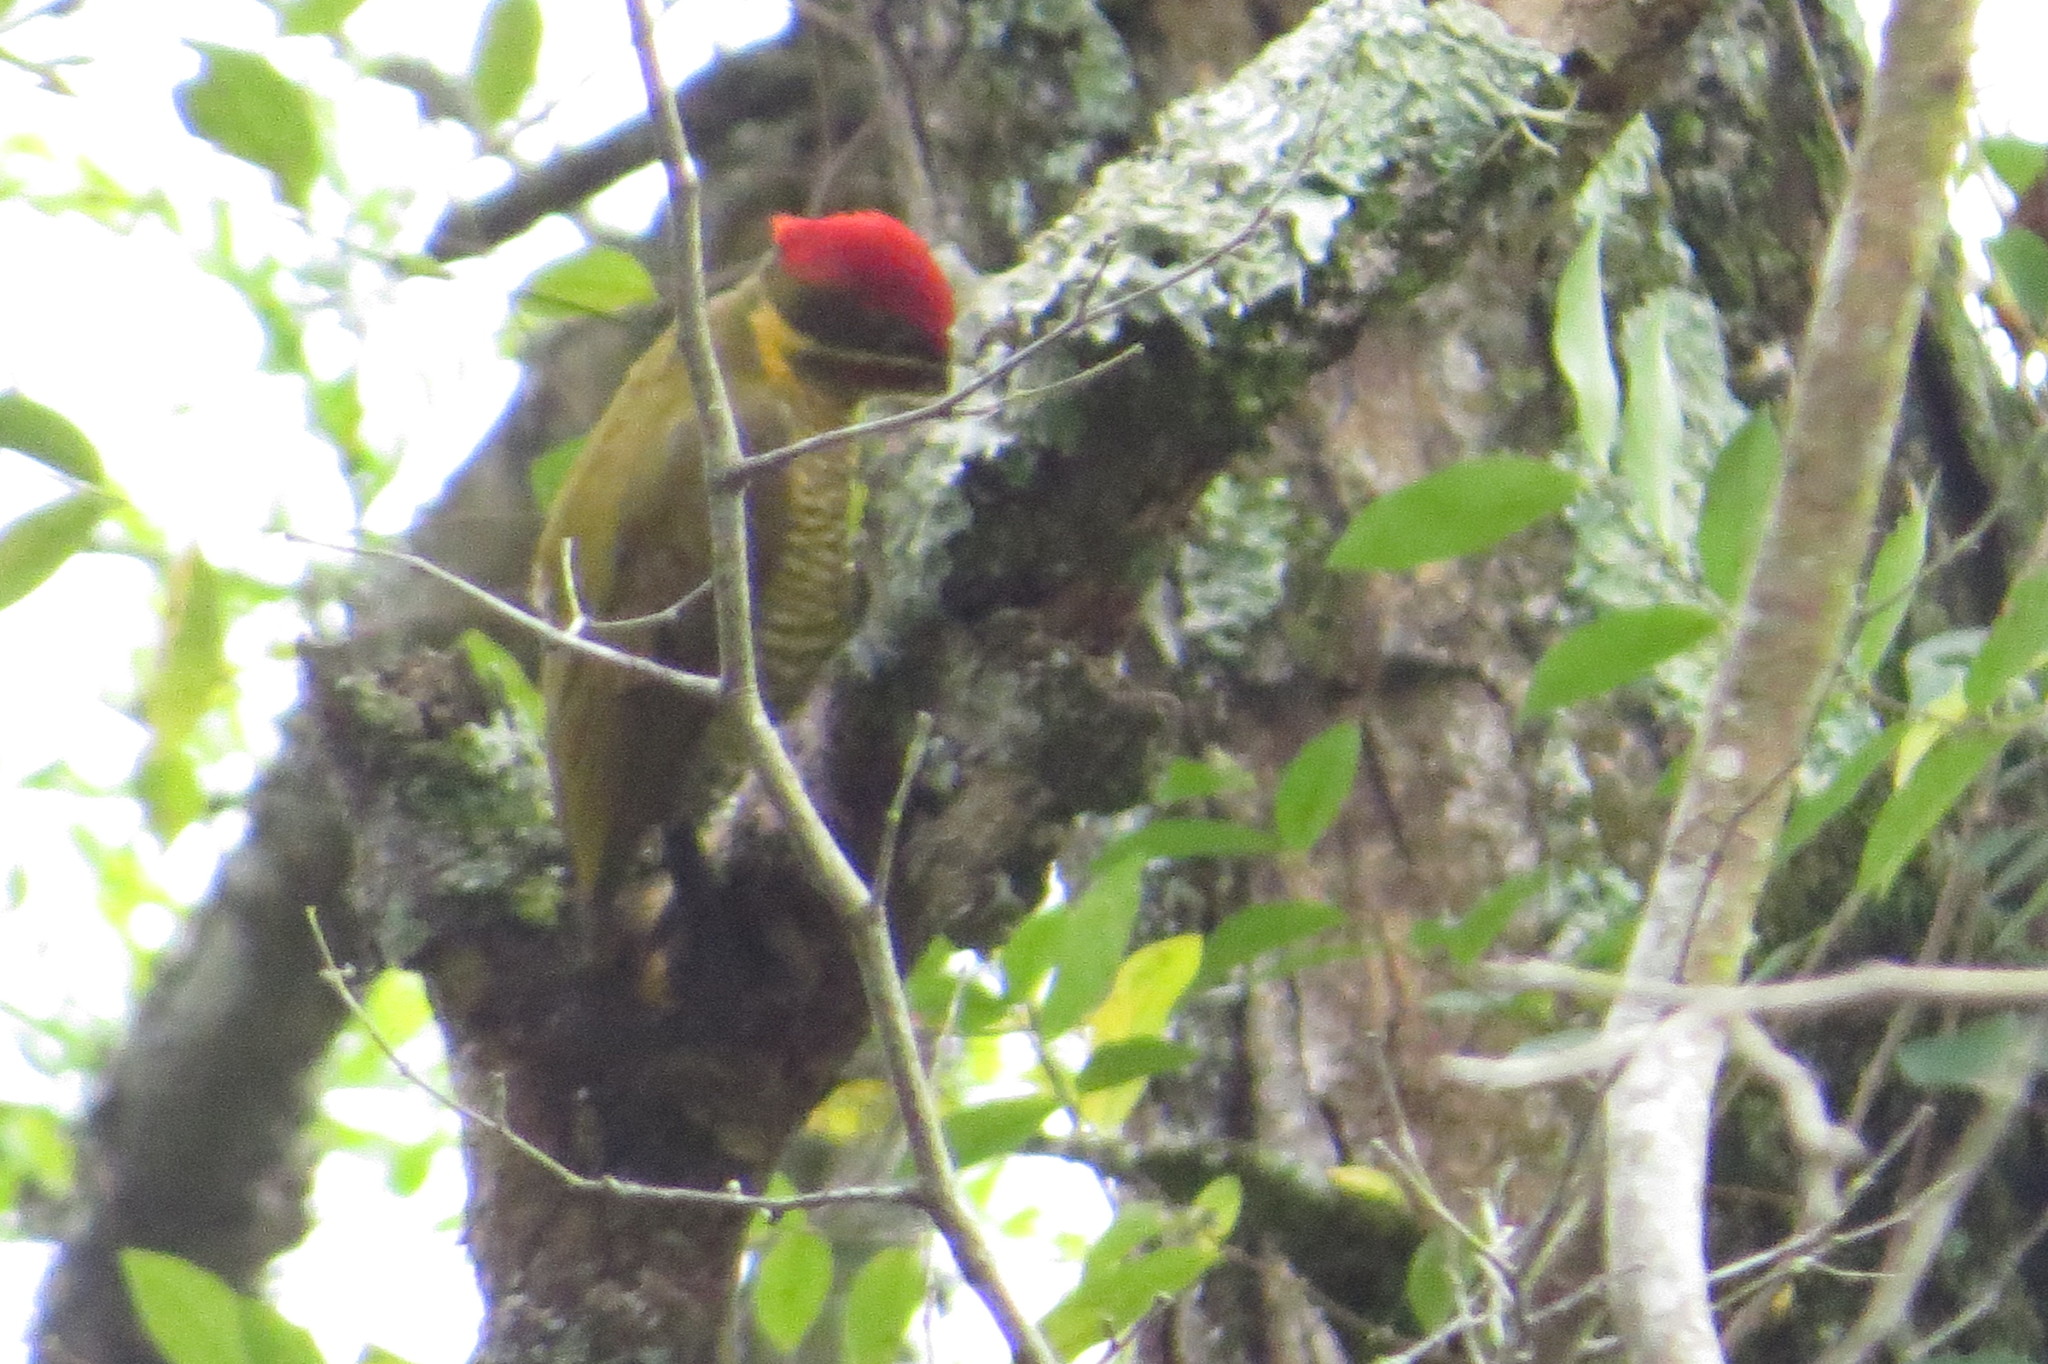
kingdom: Animalia
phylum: Chordata
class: Aves
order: Piciformes
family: Picidae
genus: Piculus
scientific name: Piculus chrysochloros
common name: Golden-green woodpecker
